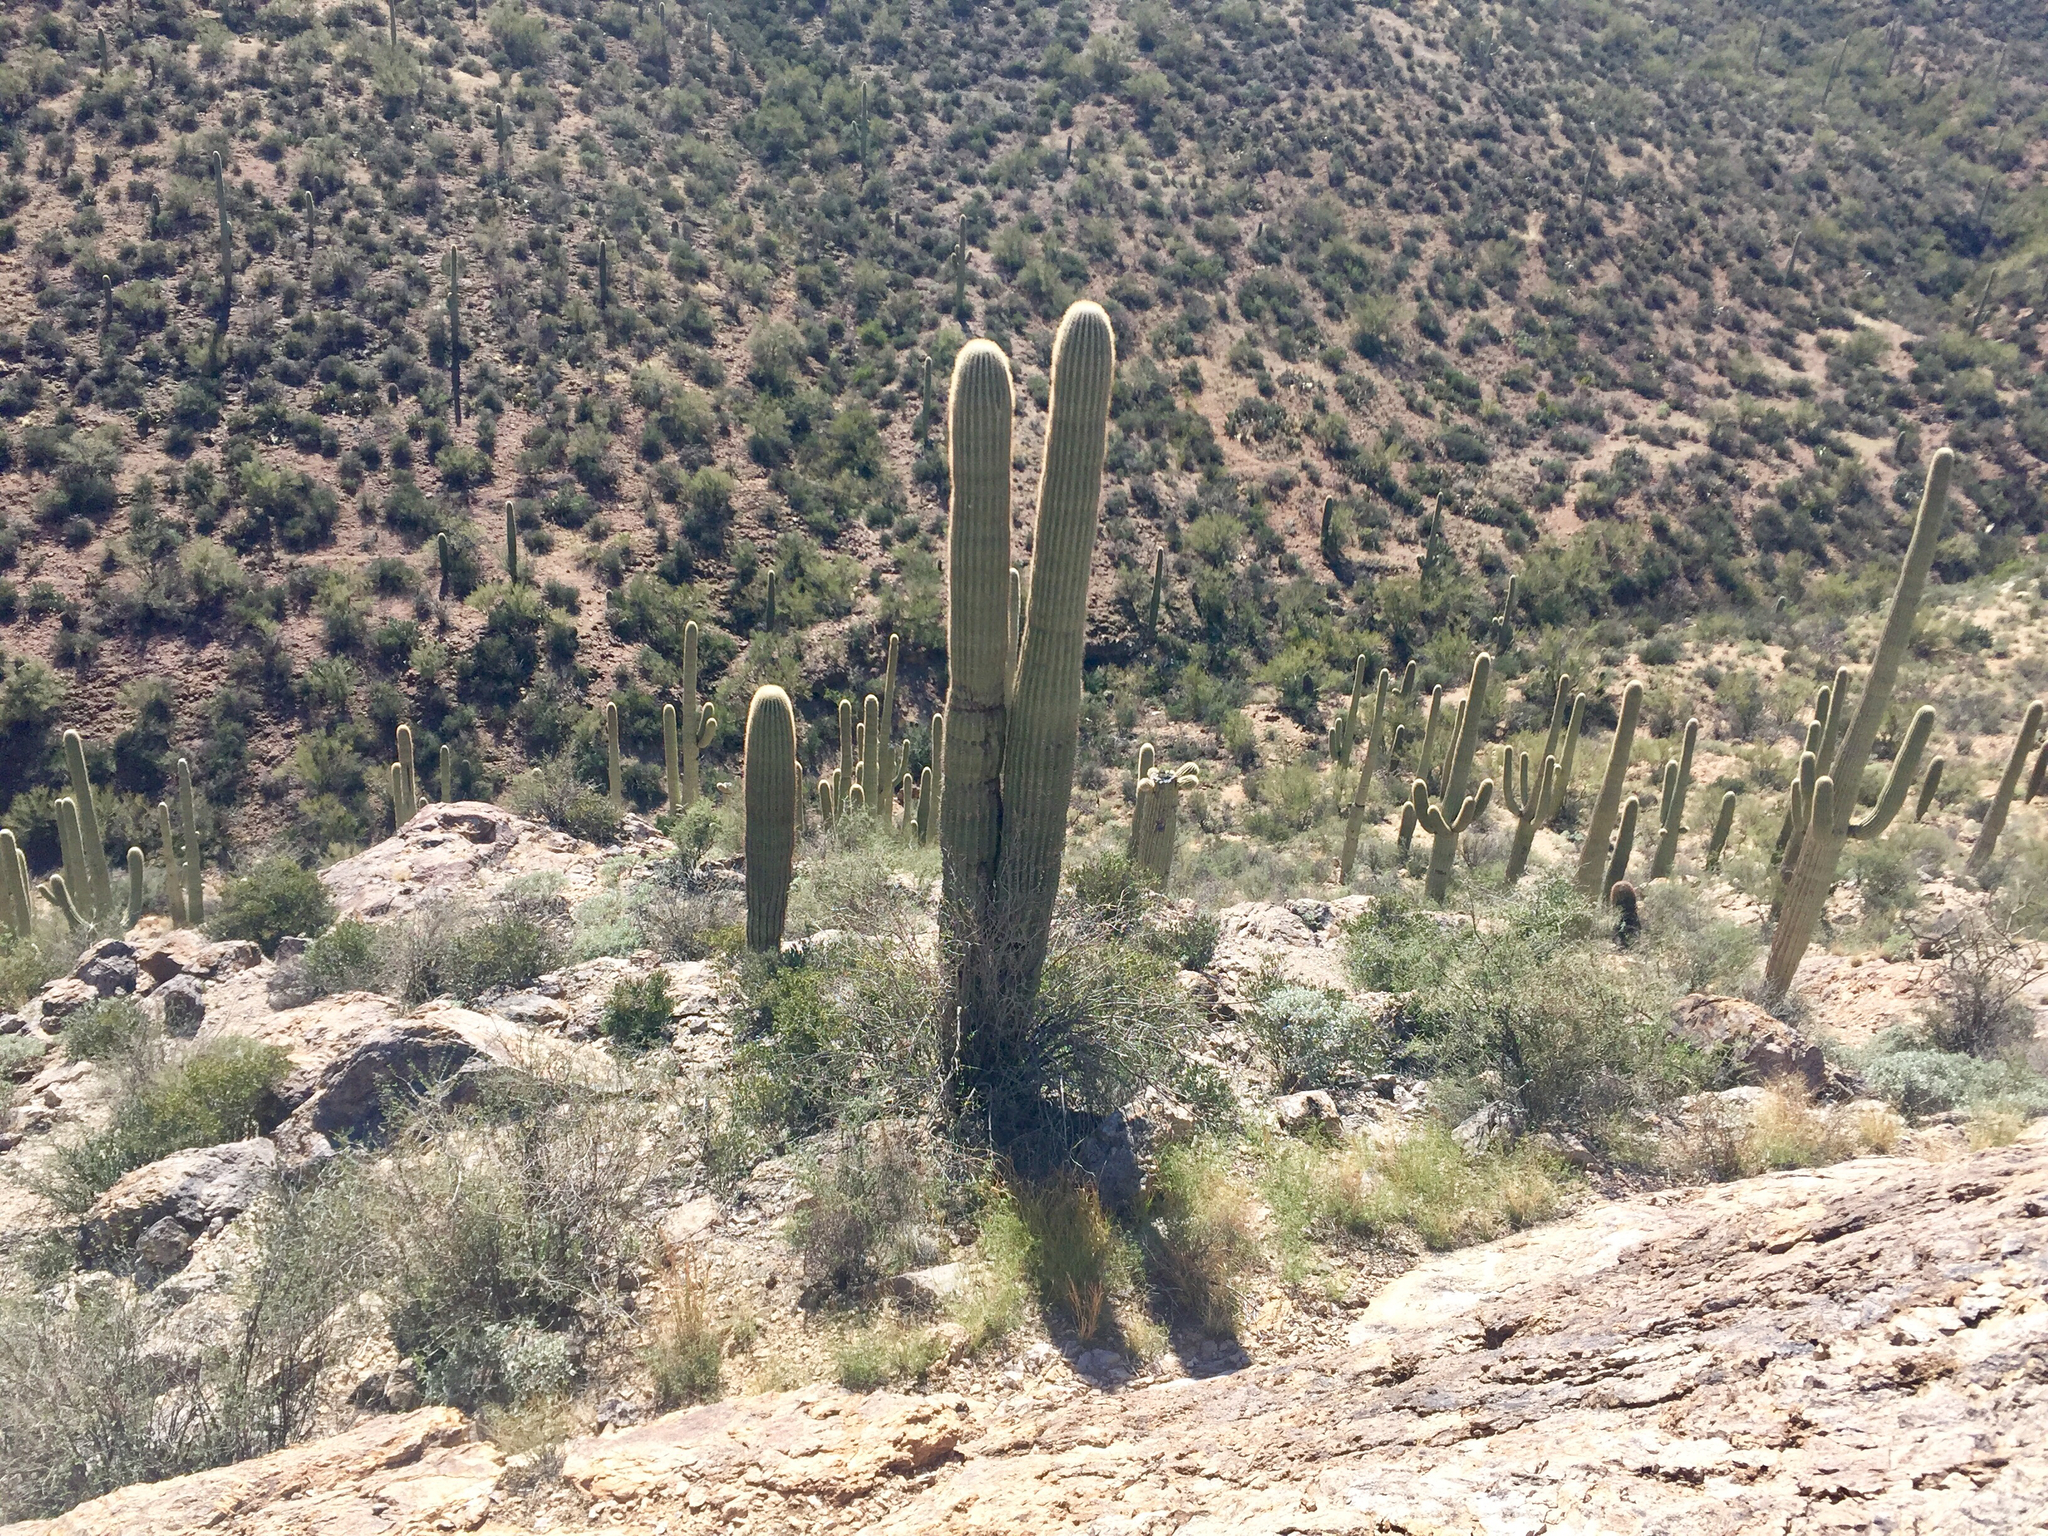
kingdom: Plantae
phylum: Tracheophyta
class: Magnoliopsida
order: Caryophyllales
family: Cactaceae
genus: Carnegiea
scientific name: Carnegiea gigantea
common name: Saguaro
